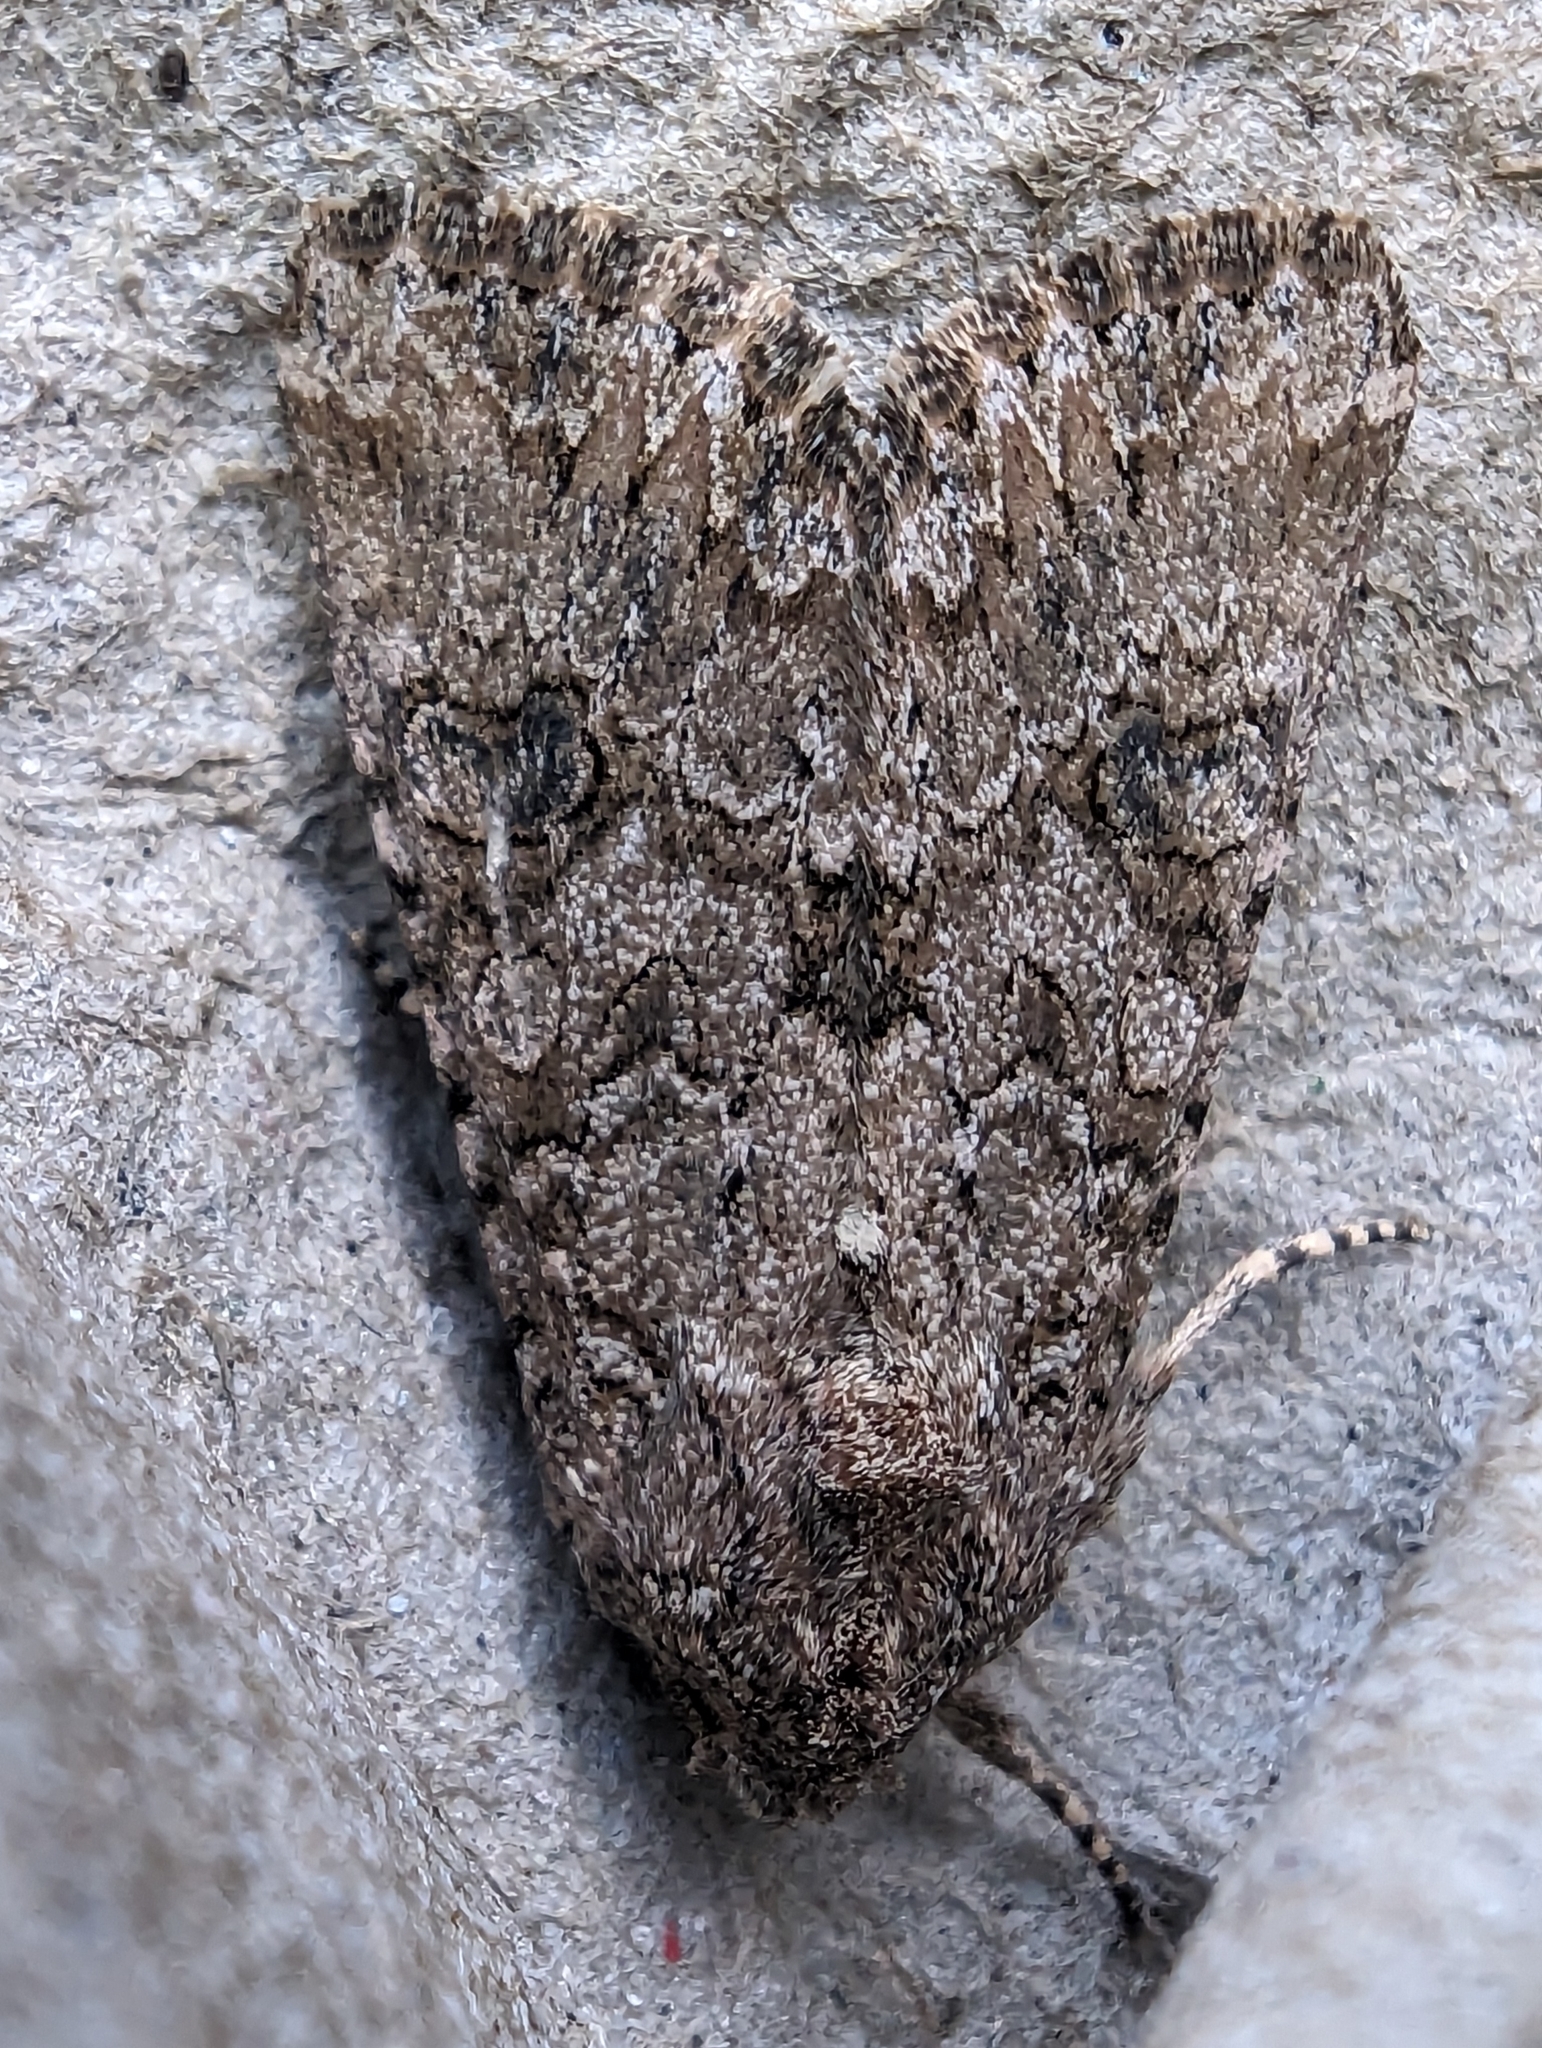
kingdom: Animalia
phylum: Arthropoda
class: Insecta
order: Lepidoptera
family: Noctuidae
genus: Anarta
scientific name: Anarta trifolii
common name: Clover cutworm moth
